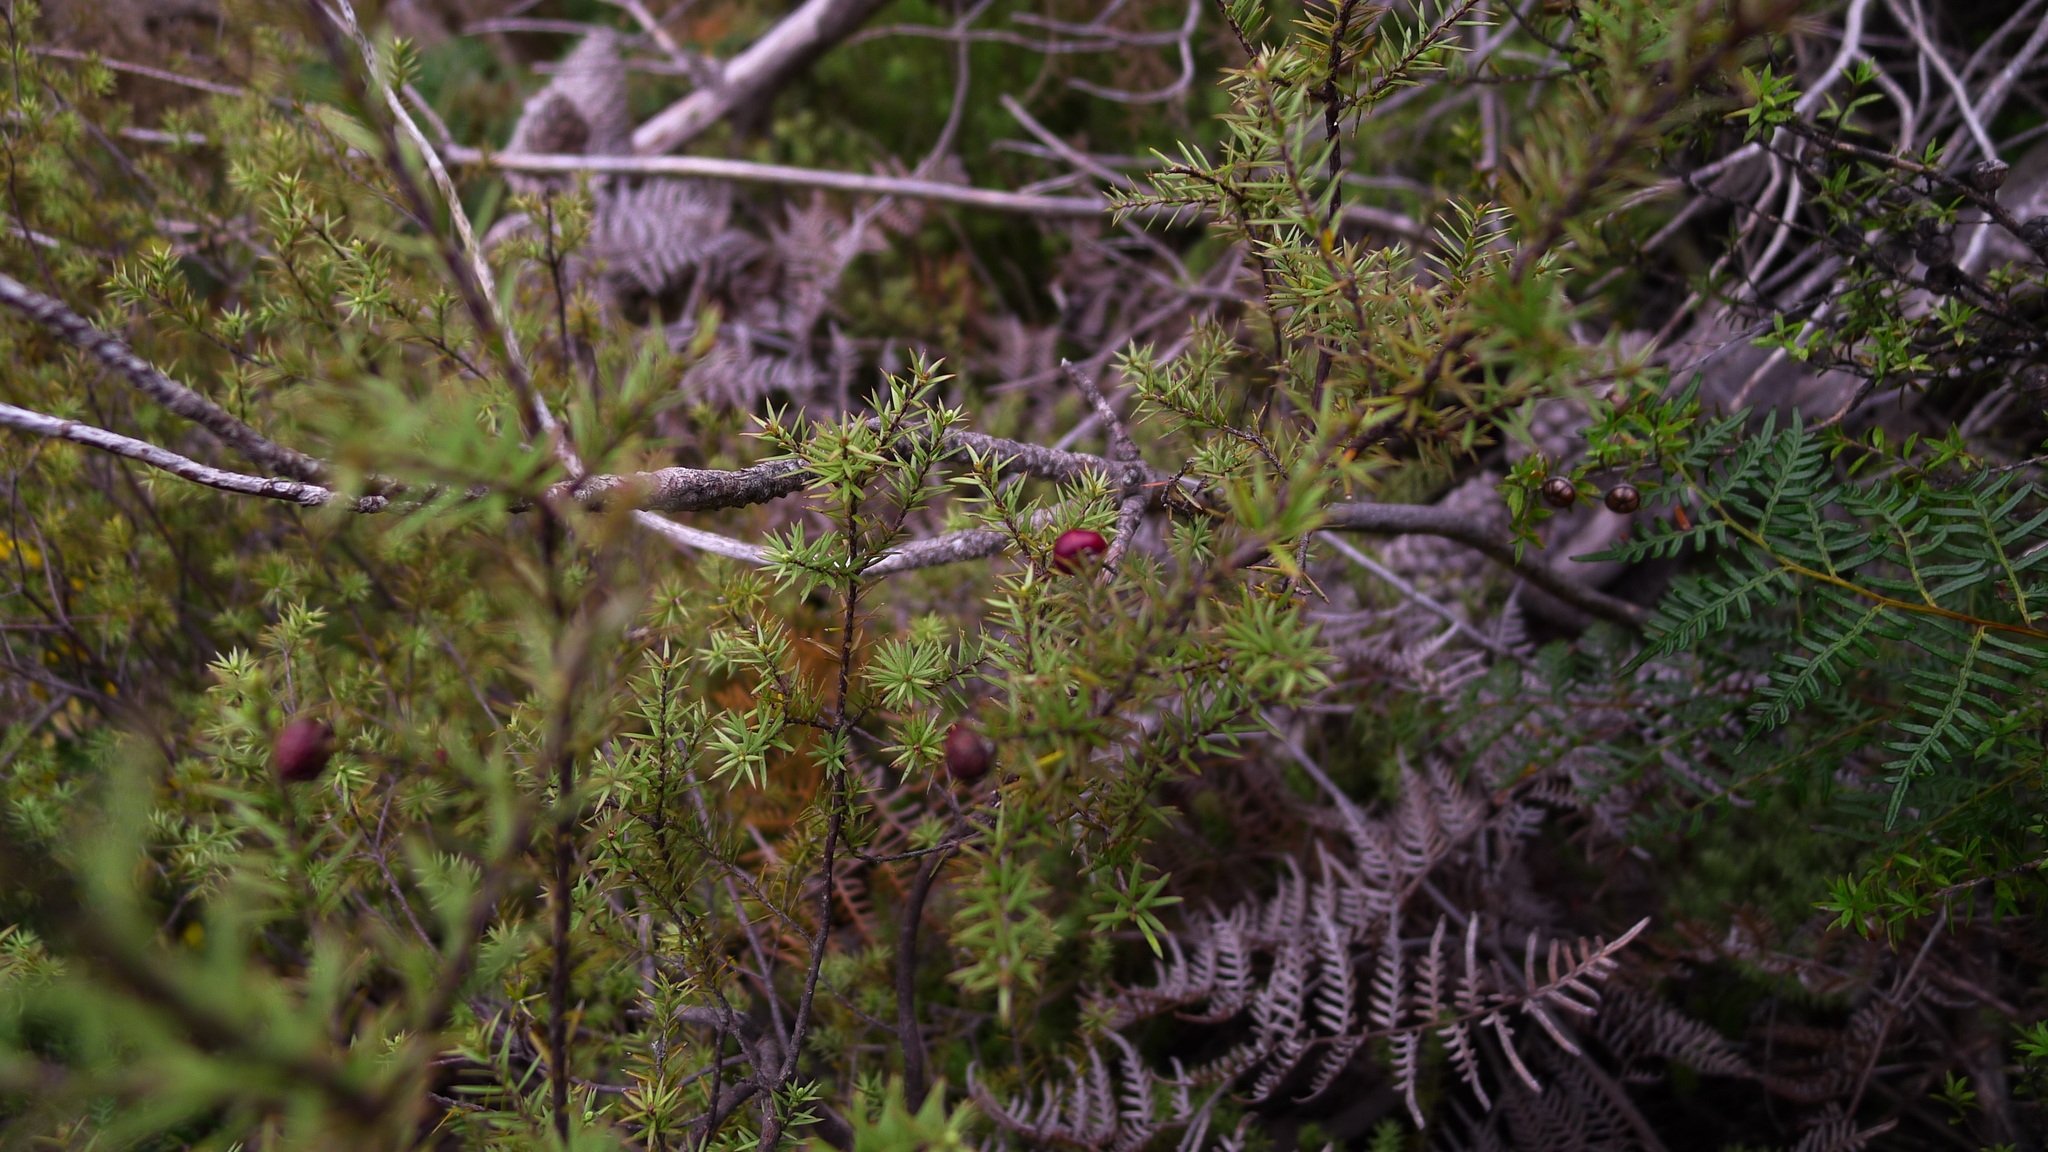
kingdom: Plantae
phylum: Tracheophyta
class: Magnoliopsida
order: Ericales
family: Ericaceae
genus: Leptecophylla
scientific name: Leptecophylla juniperina
